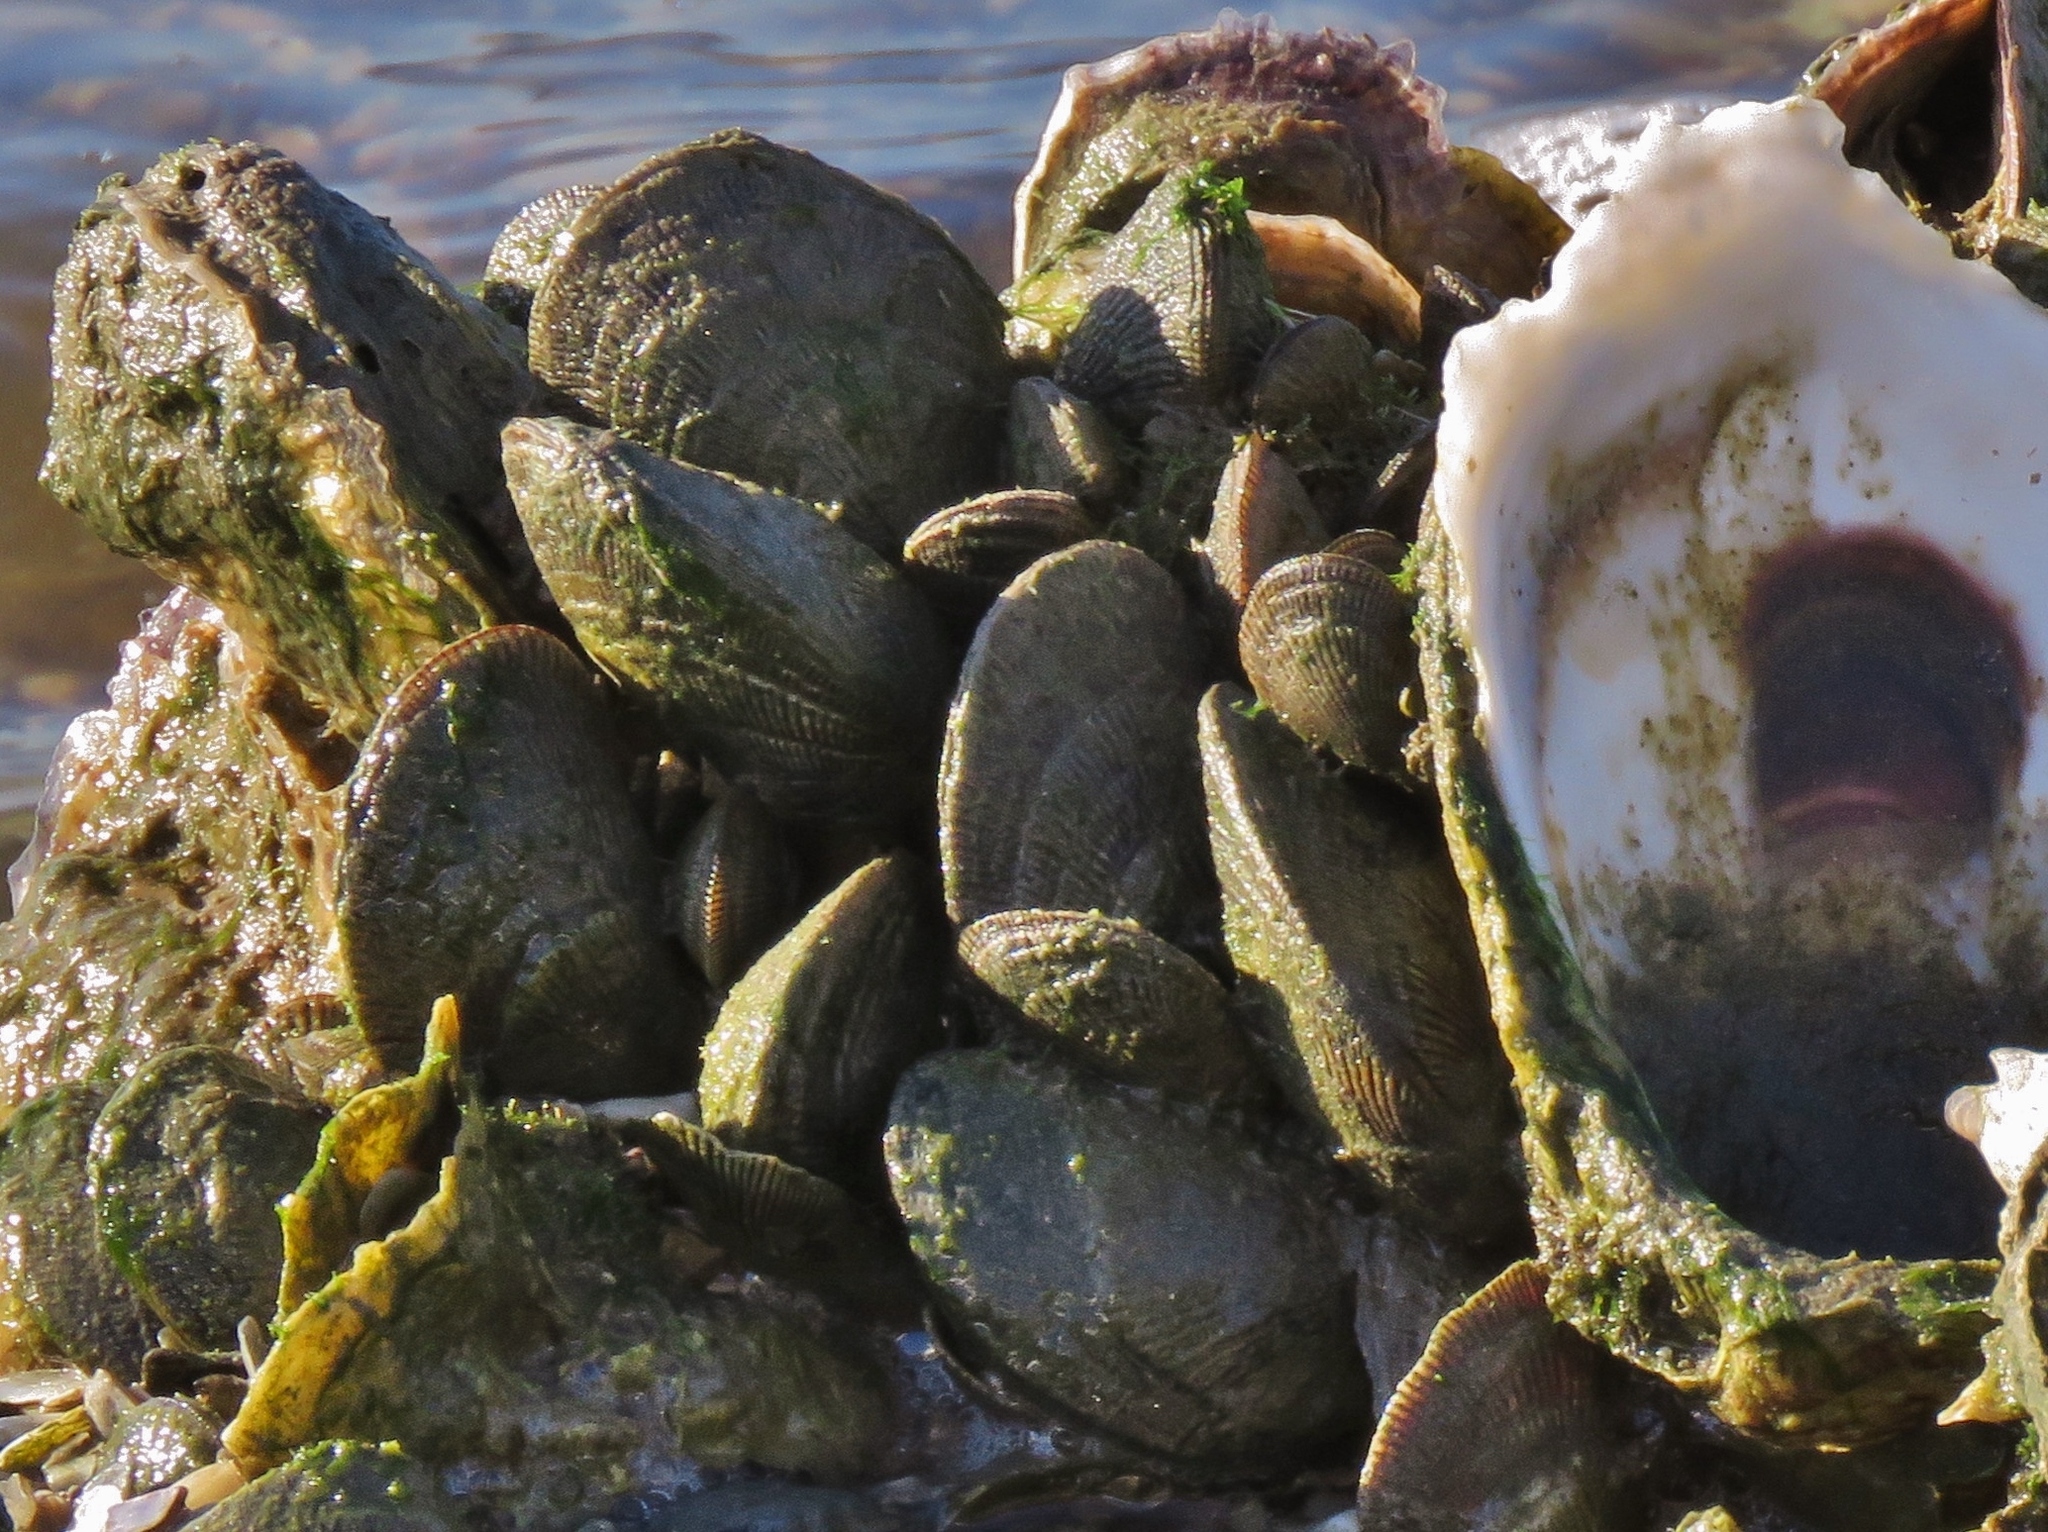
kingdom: Animalia
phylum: Mollusca
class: Bivalvia
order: Mytilida
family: Mytilidae
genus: Geukensia
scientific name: Geukensia granosissima
